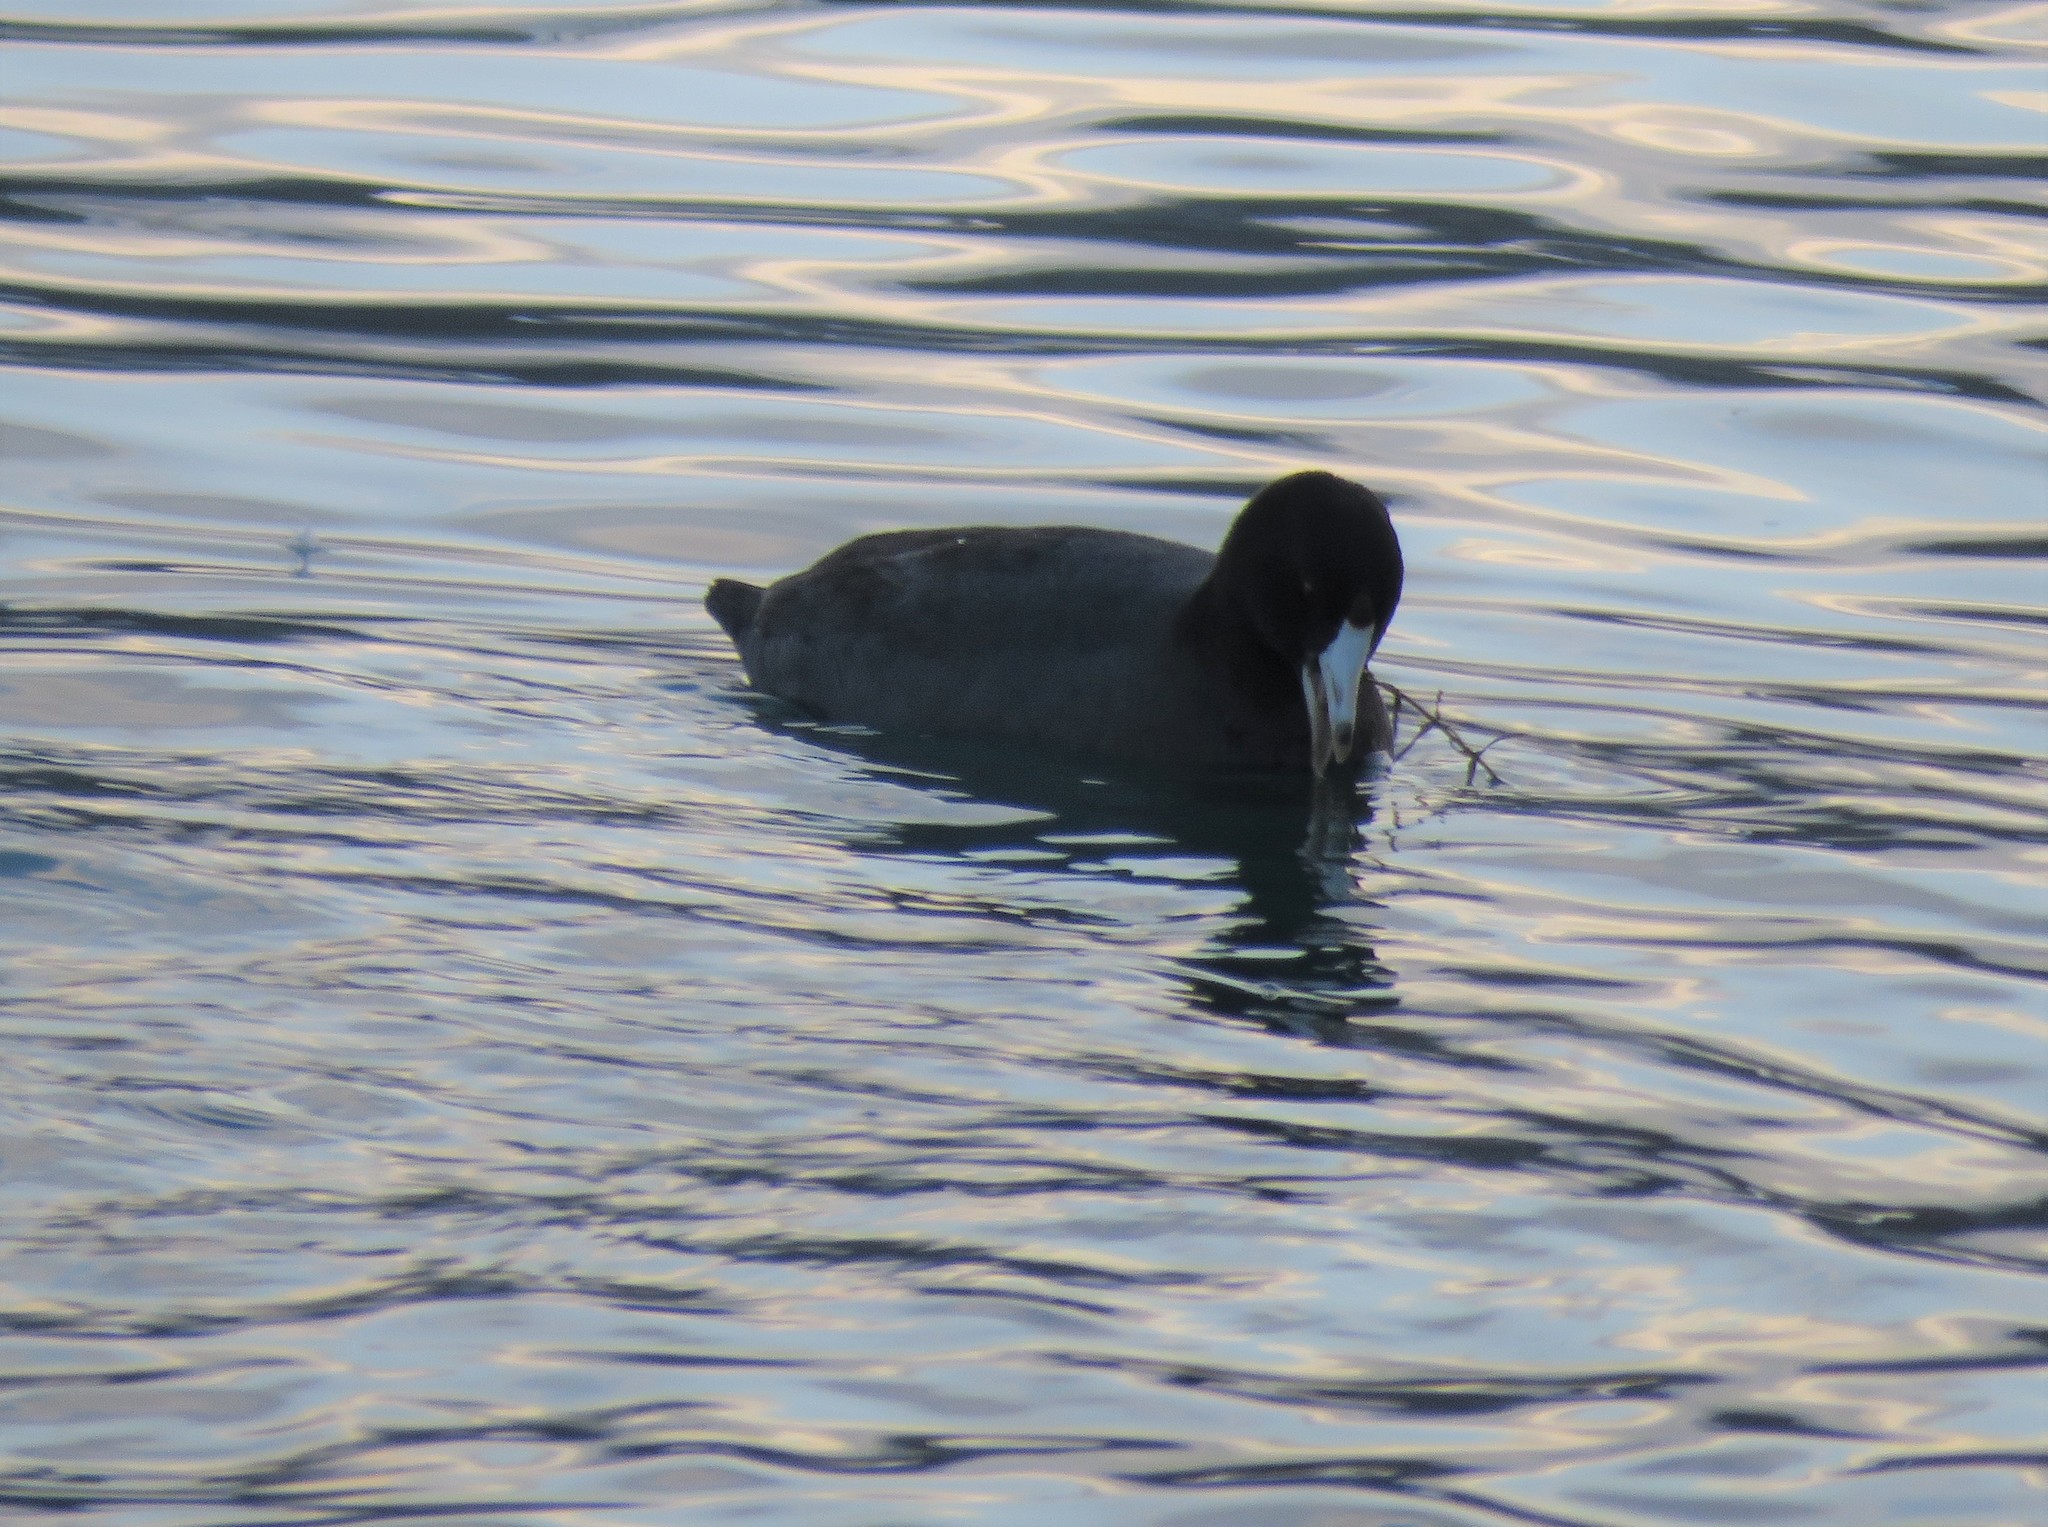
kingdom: Animalia
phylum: Chordata
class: Aves
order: Gruiformes
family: Rallidae
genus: Fulica
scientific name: Fulica americana
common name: American coot
